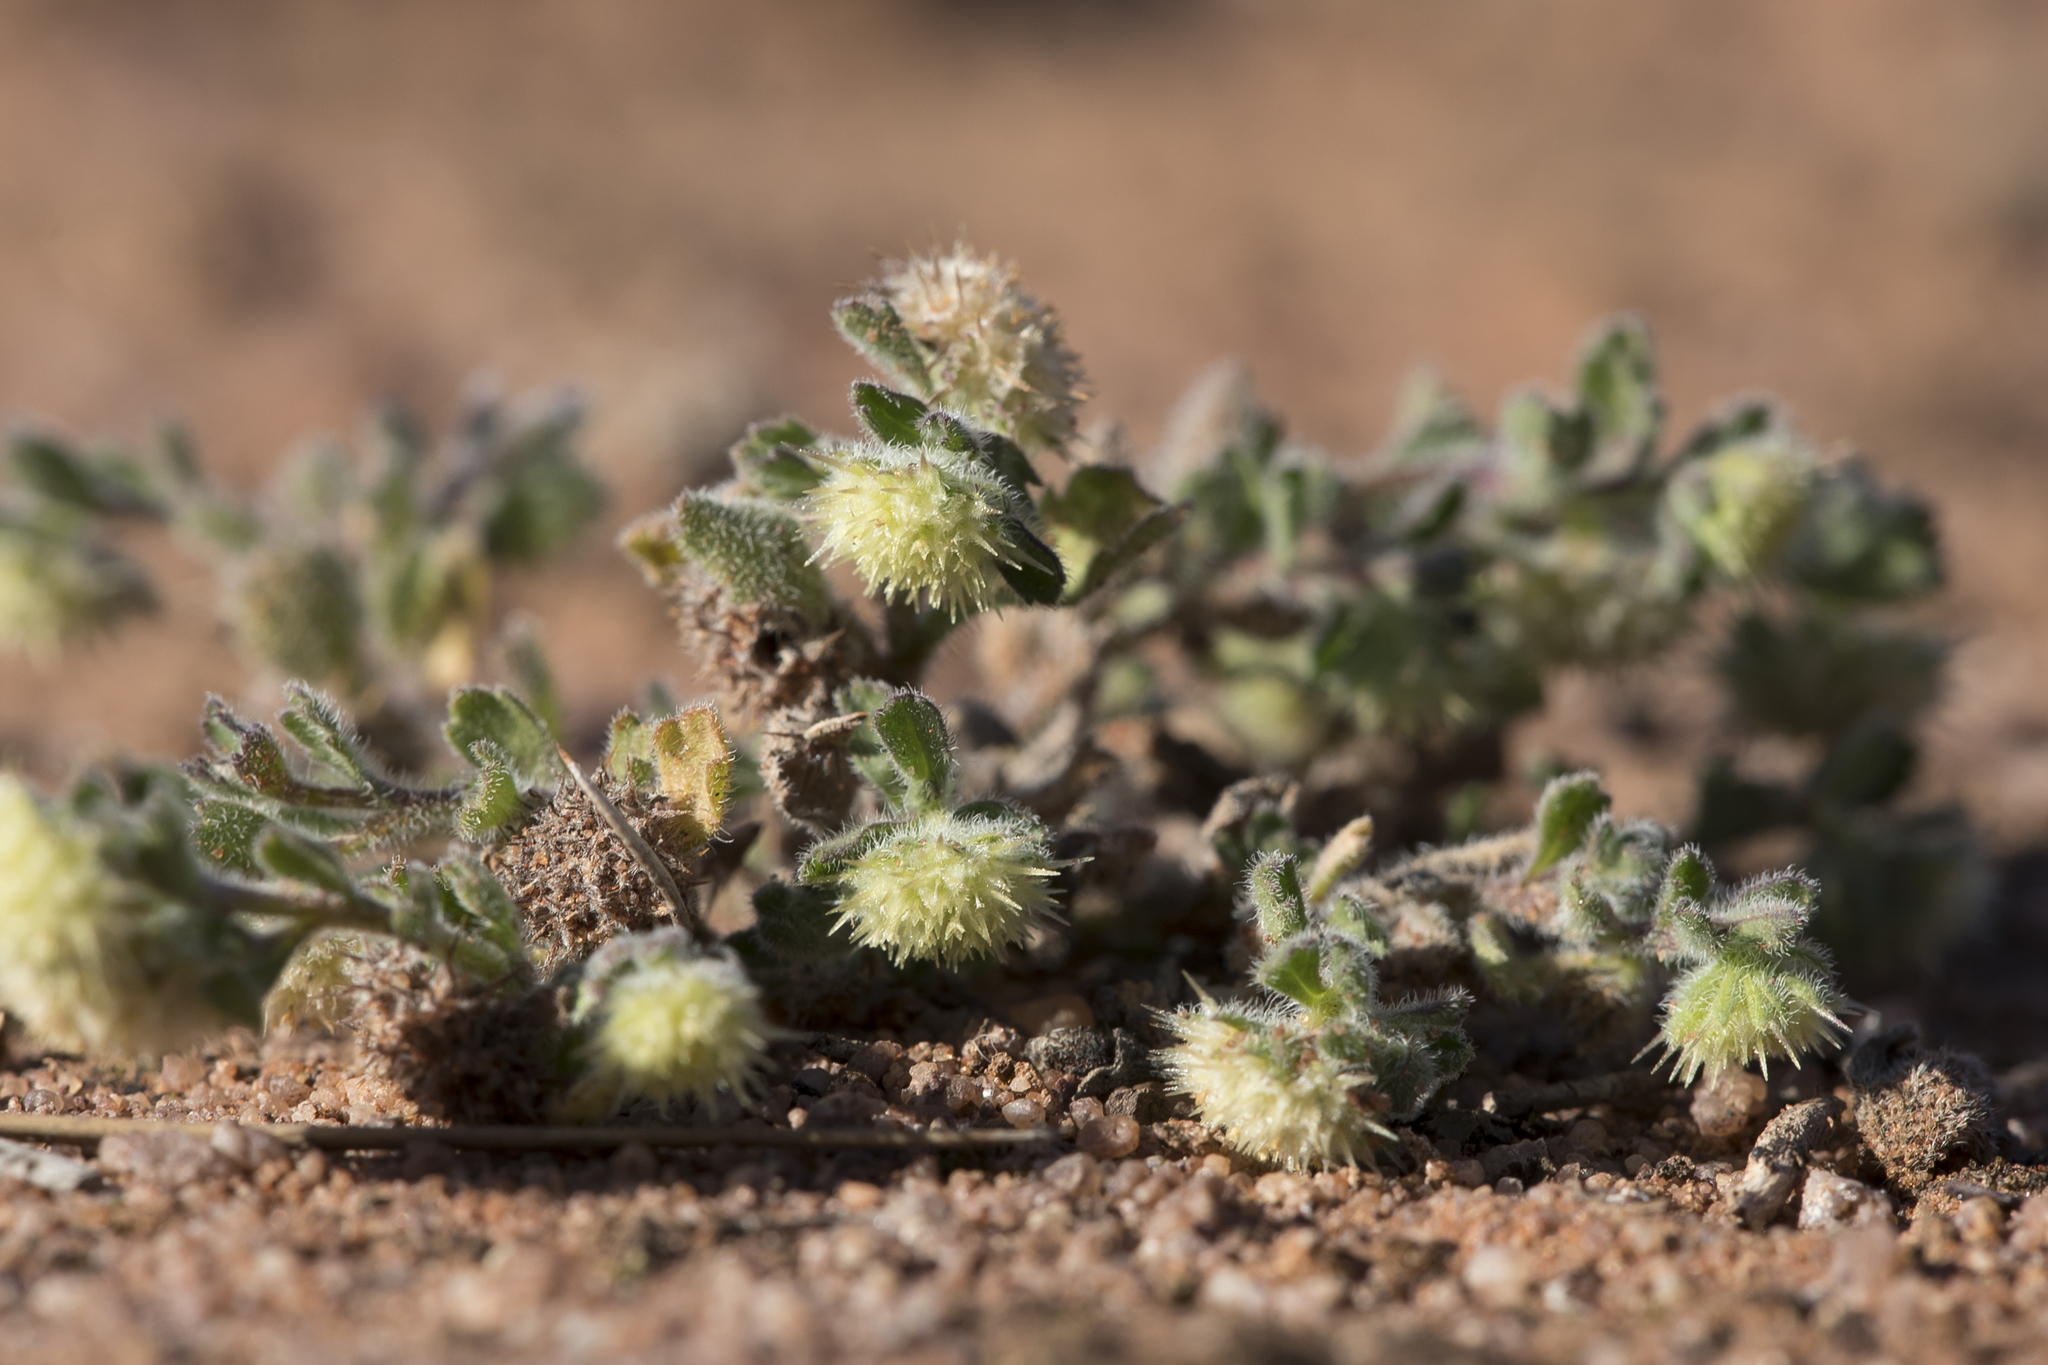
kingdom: Plantae
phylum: Tracheophyta
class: Magnoliopsida
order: Asterales
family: Asteraceae
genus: Calotis
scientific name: Calotis hispidula
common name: Bogan-flea
